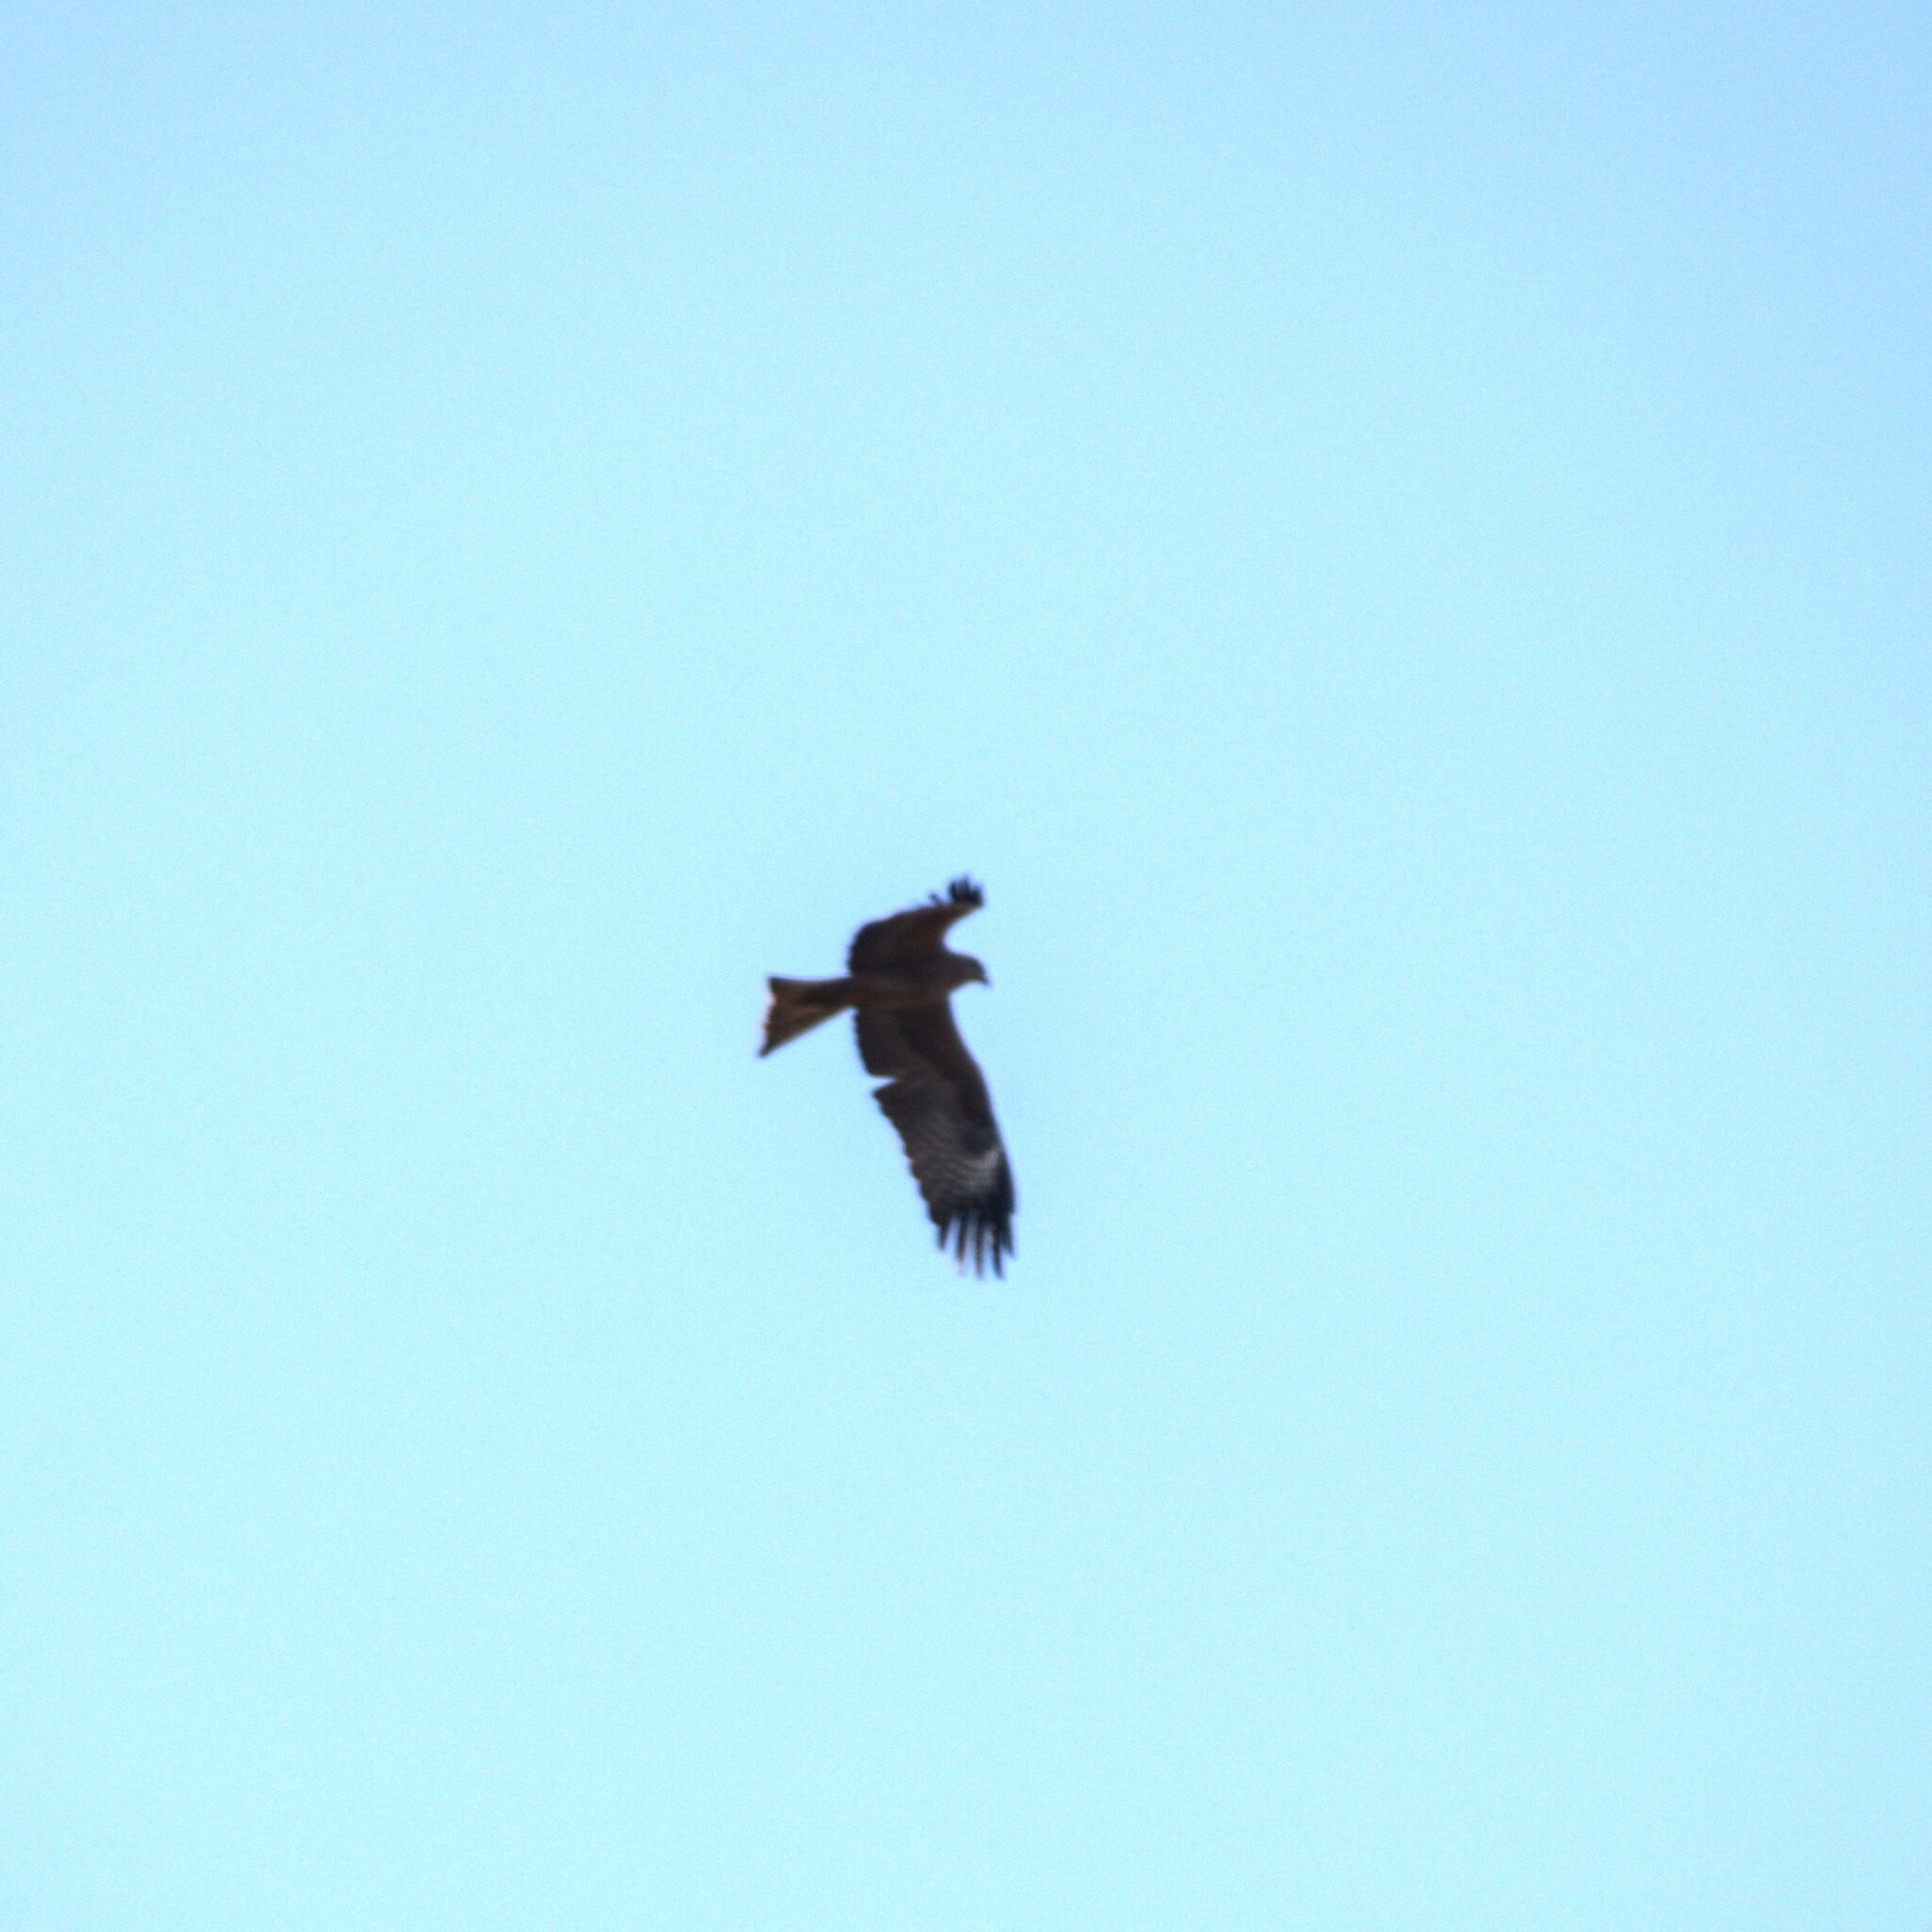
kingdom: Animalia
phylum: Chordata
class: Aves
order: Accipitriformes
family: Accipitridae
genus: Milvus
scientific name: Milvus migrans
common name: Black kite
